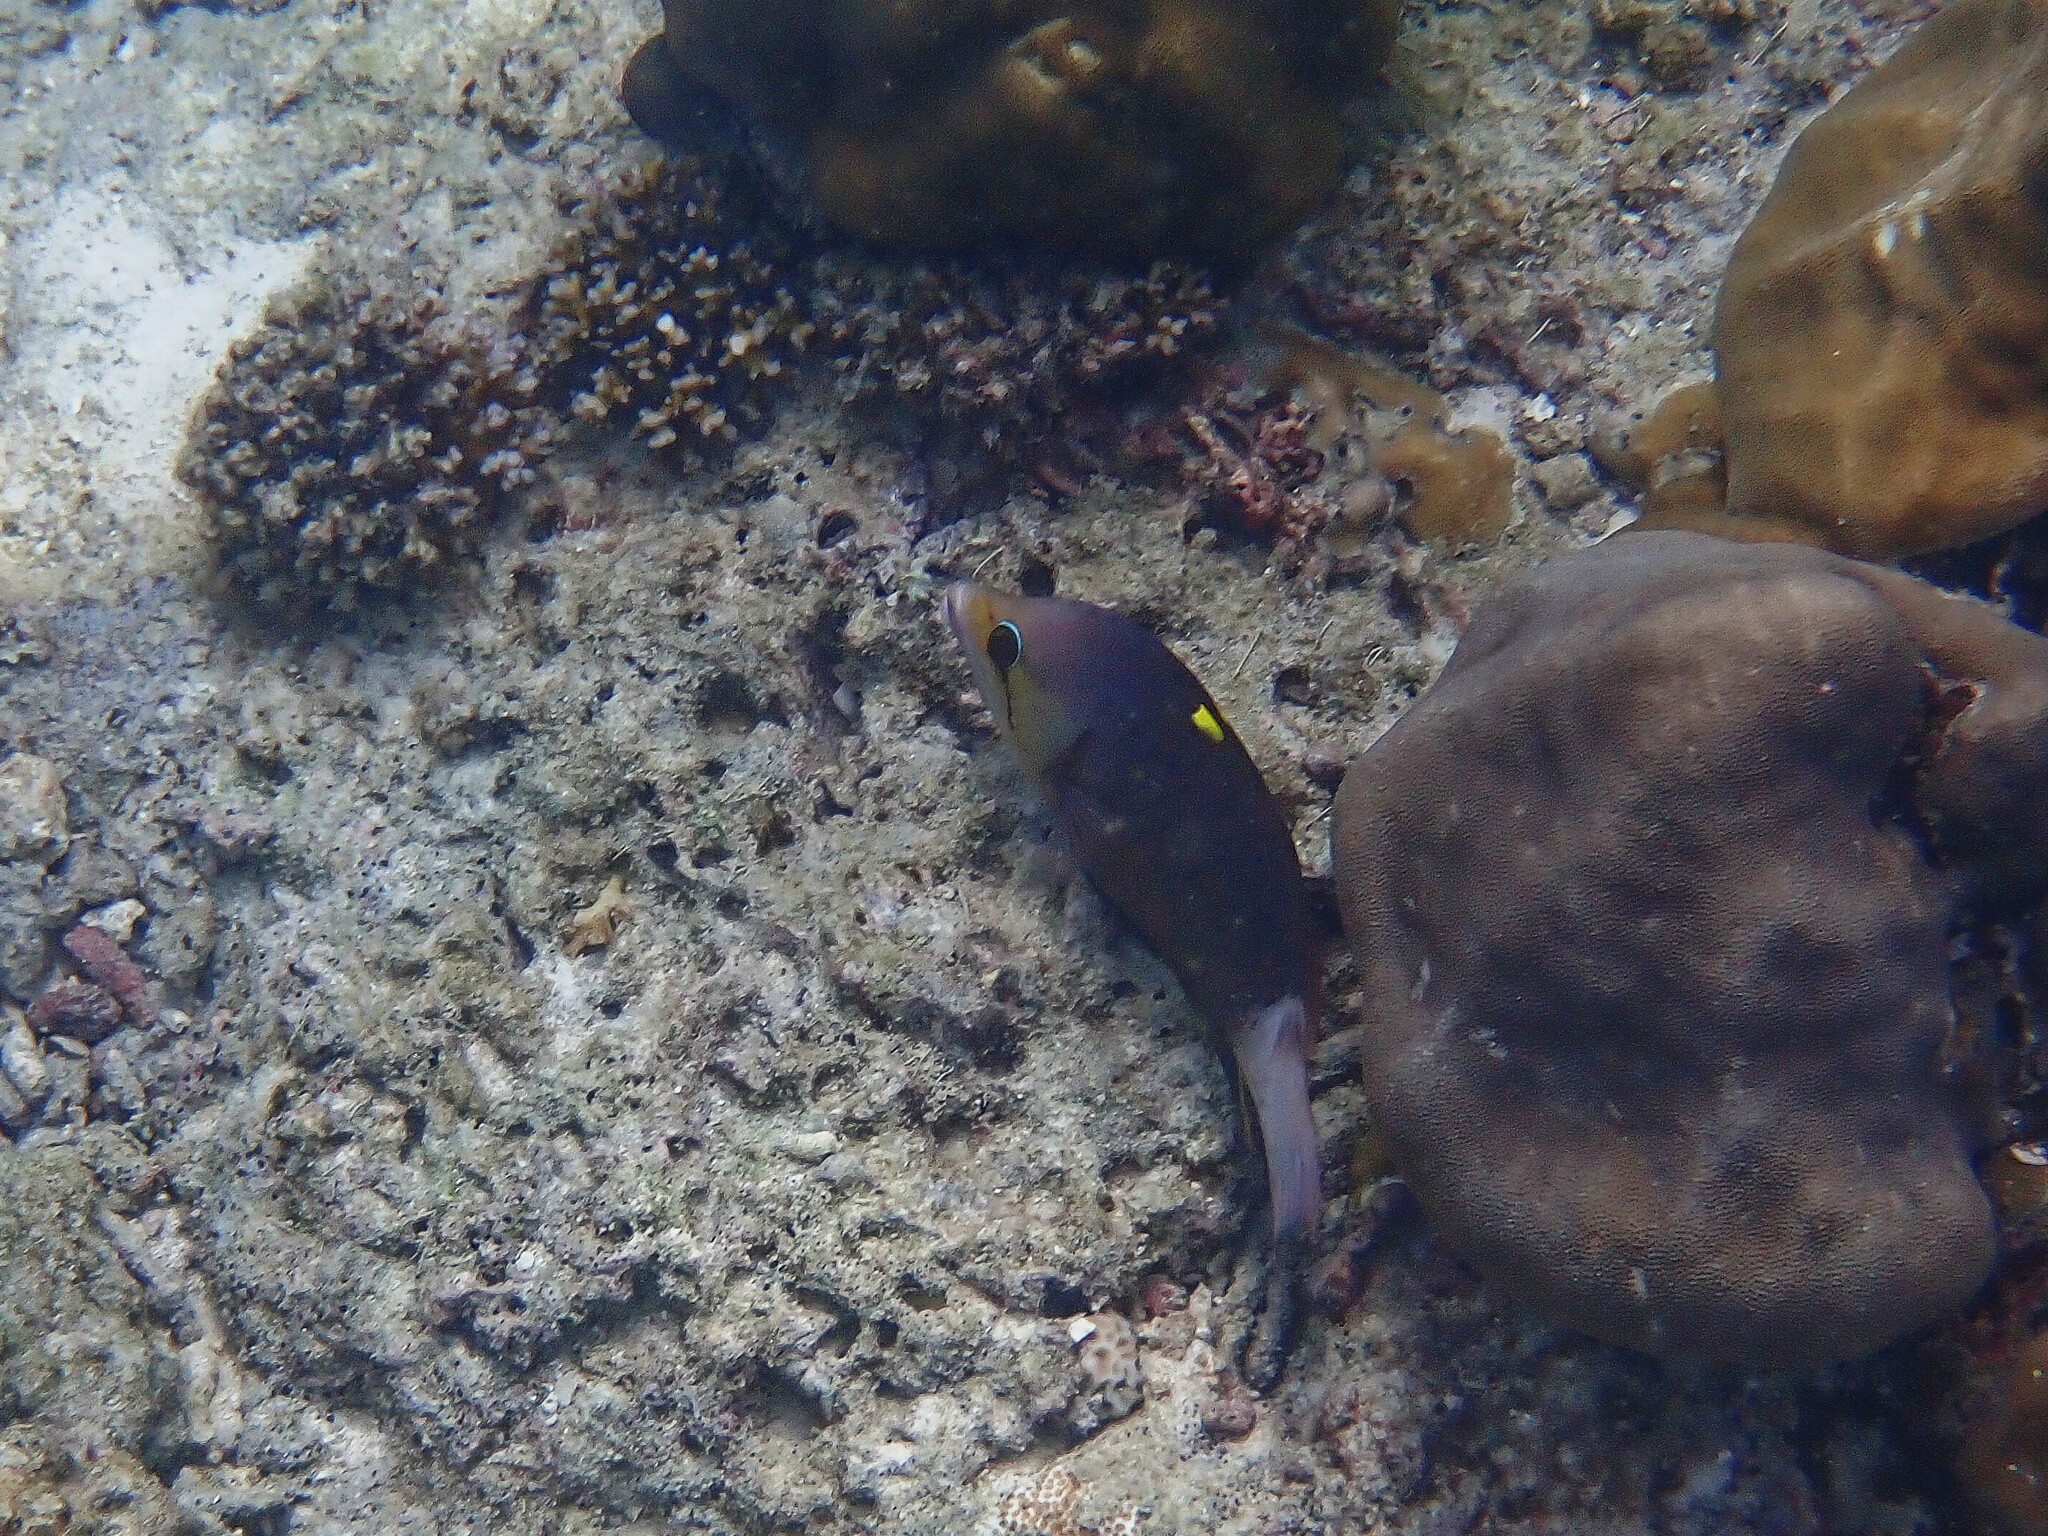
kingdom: Animalia
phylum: Chordata
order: Perciformes
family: Labridae
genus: Epibulus
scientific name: Epibulus insidiator
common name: Slingjaw wrasse
